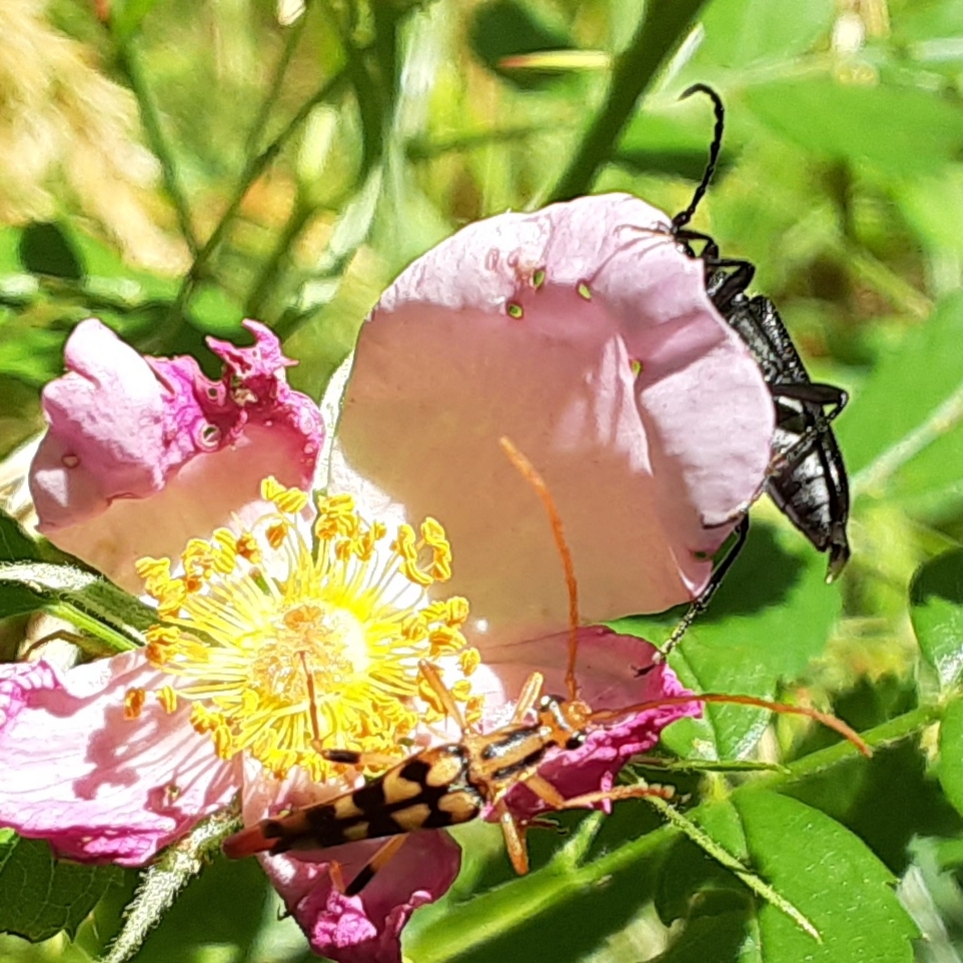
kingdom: Animalia
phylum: Arthropoda
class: Insecta
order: Coleoptera
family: Cerambycidae
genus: Strangalia
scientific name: Strangalia luteicornis
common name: Yellow-horned flower longhorn beetle
